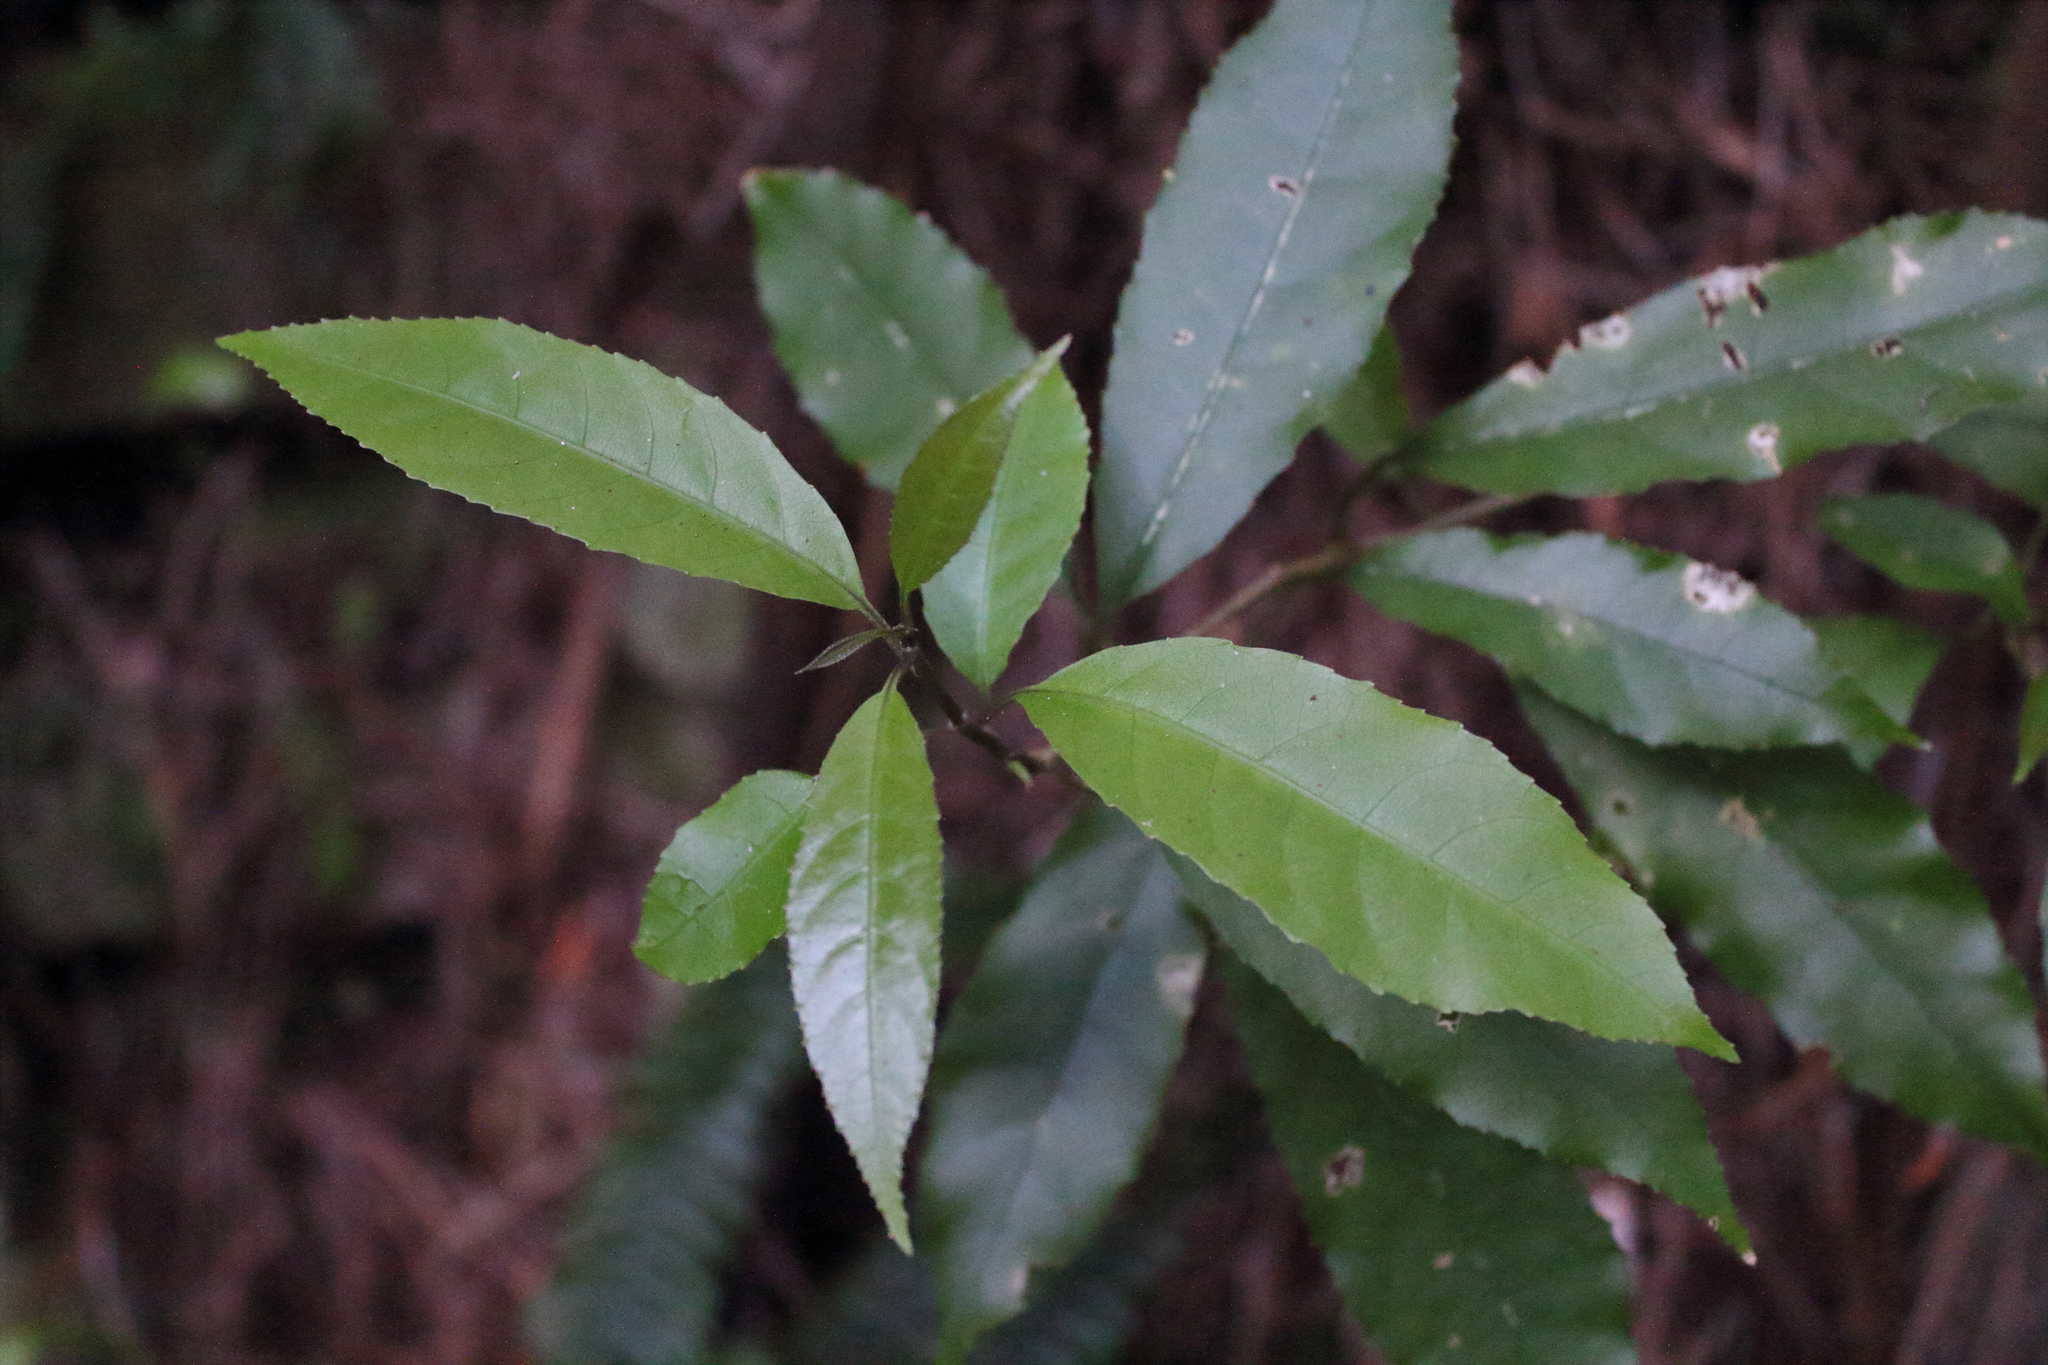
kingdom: Plantae
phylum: Tracheophyta
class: Magnoliopsida
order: Malpighiales
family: Violaceae
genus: Melicytus
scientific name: Melicytus ramiflorus
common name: Mahoe
